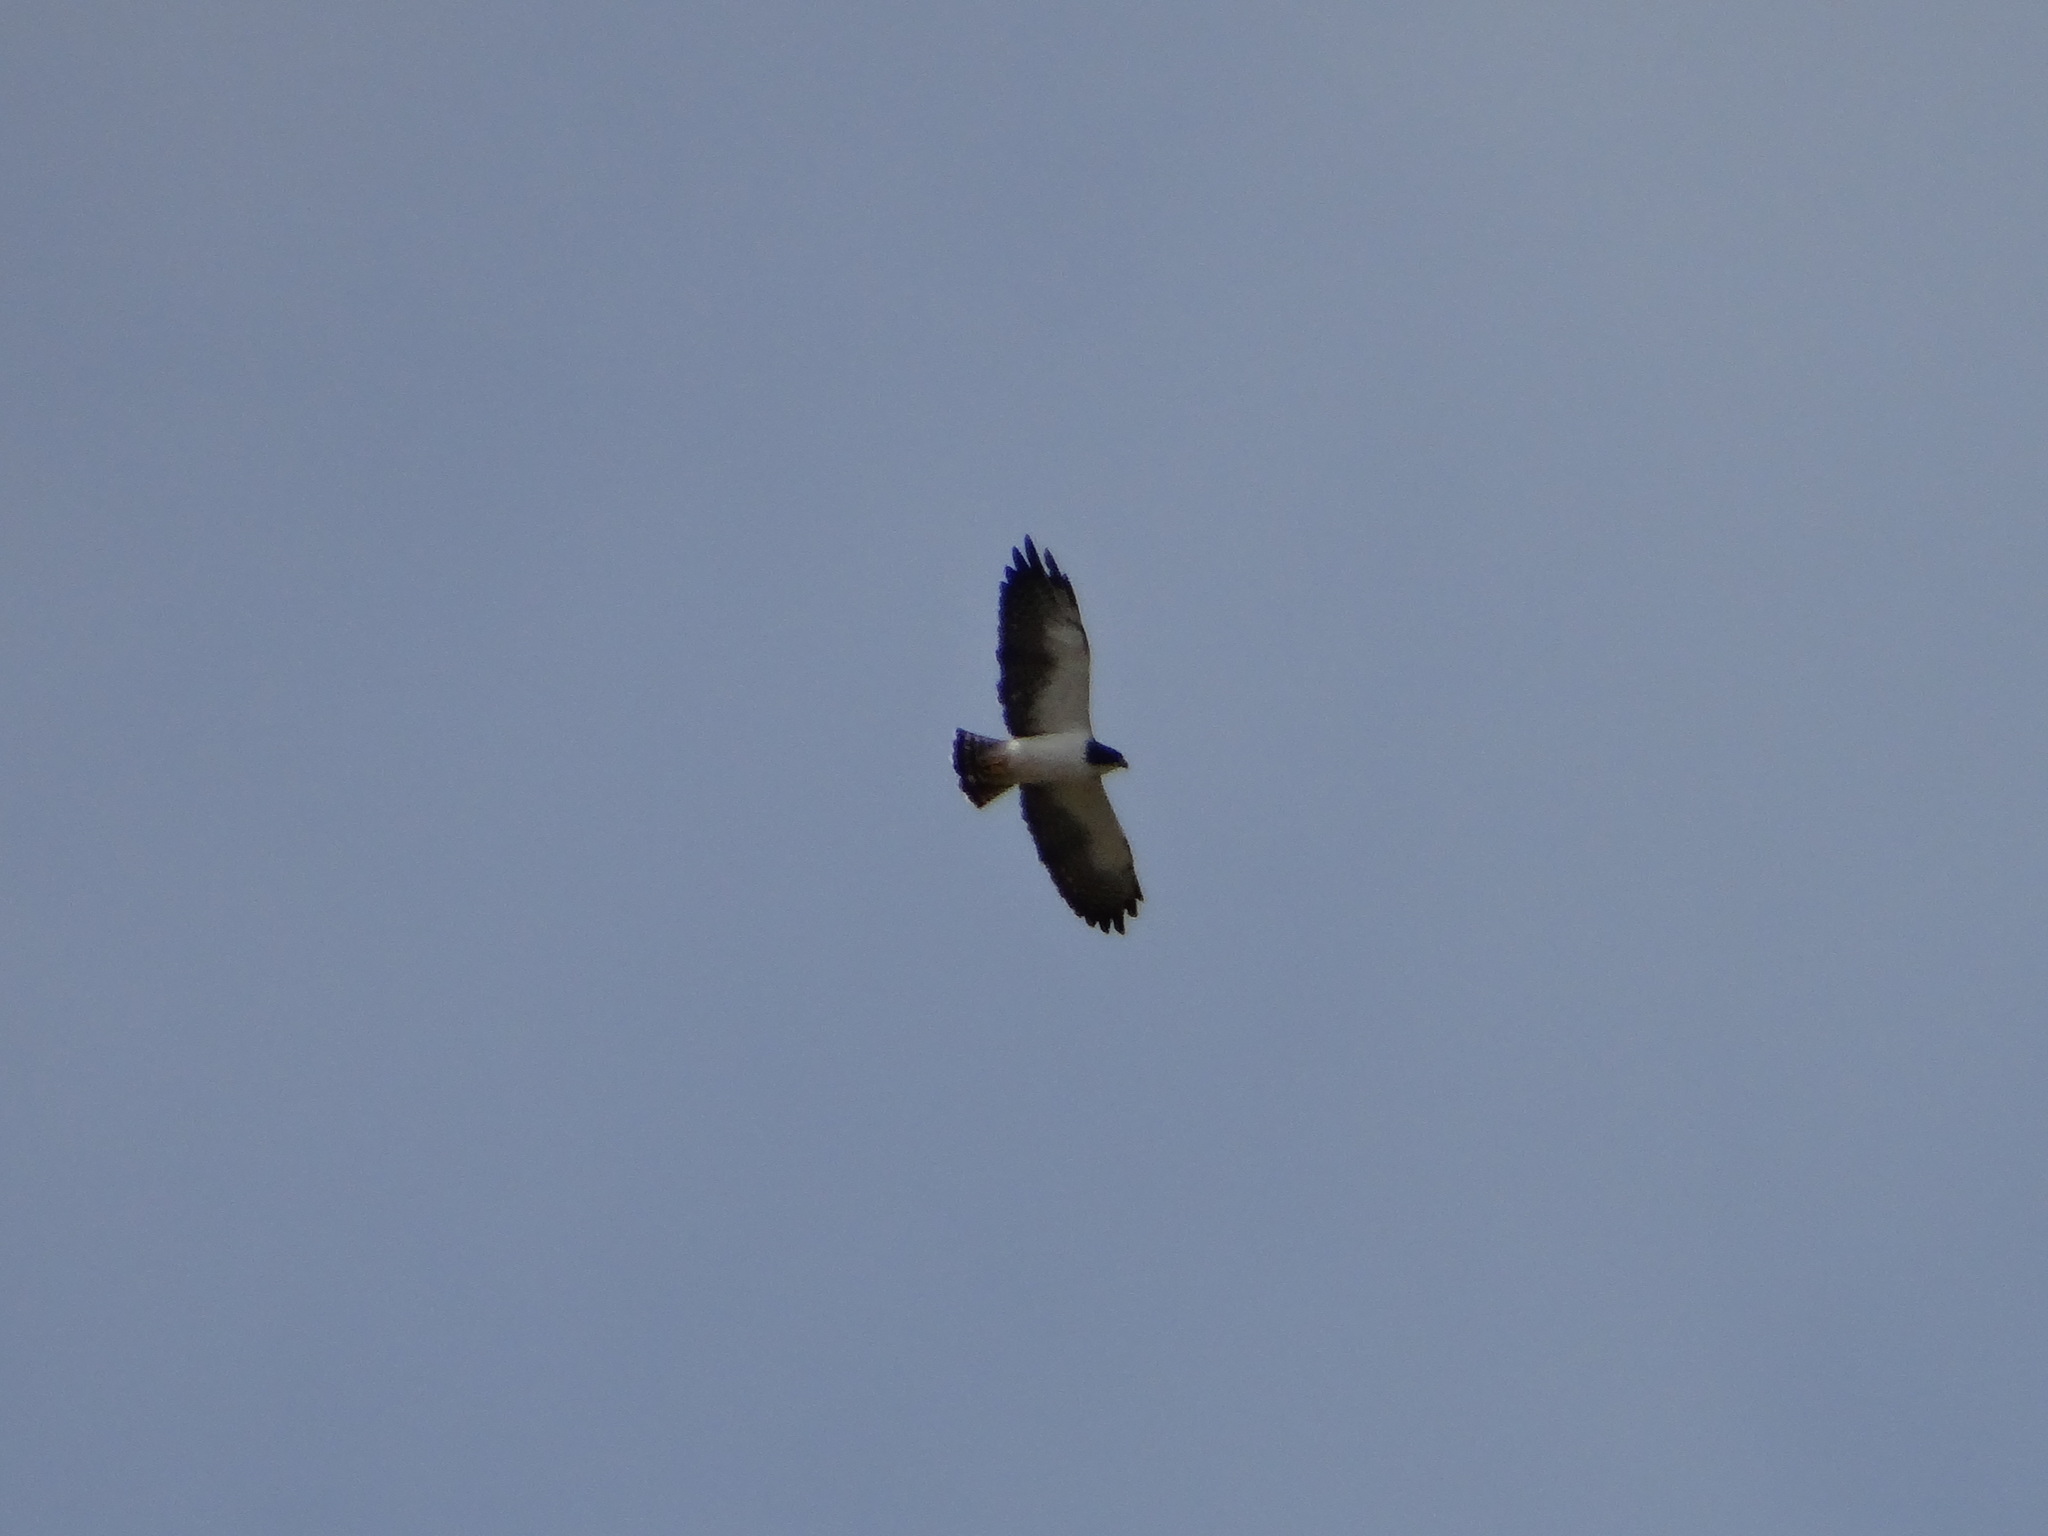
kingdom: Animalia
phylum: Chordata
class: Aves
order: Accipitriformes
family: Accipitridae
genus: Buteo
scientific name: Buteo brachyurus
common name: Short-tailed hawk
